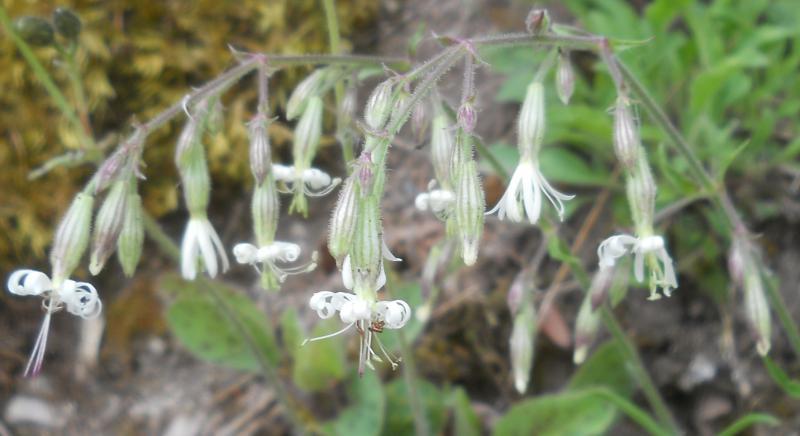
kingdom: Plantae
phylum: Tracheophyta
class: Magnoliopsida
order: Caryophyllales
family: Caryophyllaceae
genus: Silene
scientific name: Silene nutans
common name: Nottingham catchfly
